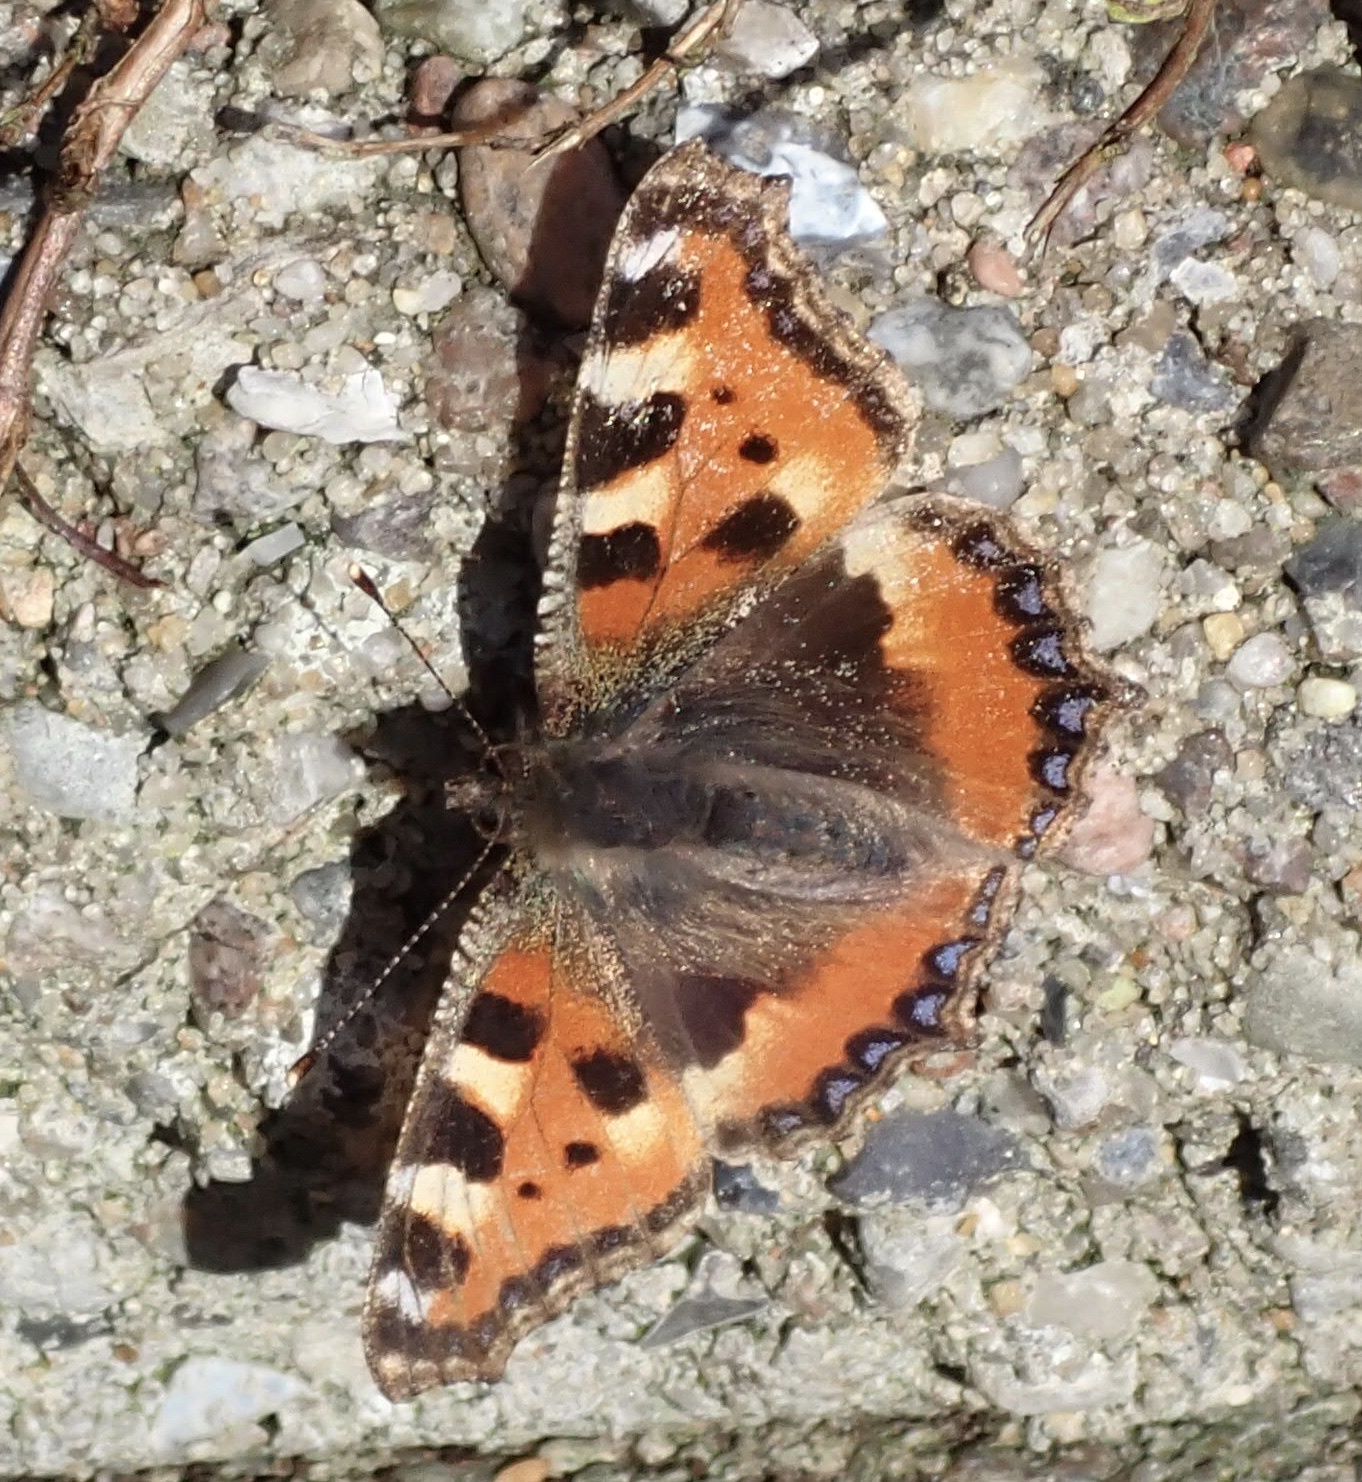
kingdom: Animalia
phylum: Arthropoda
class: Insecta
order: Lepidoptera
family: Nymphalidae
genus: Aglais
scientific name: Aglais urticae
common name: Small tortoiseshell
